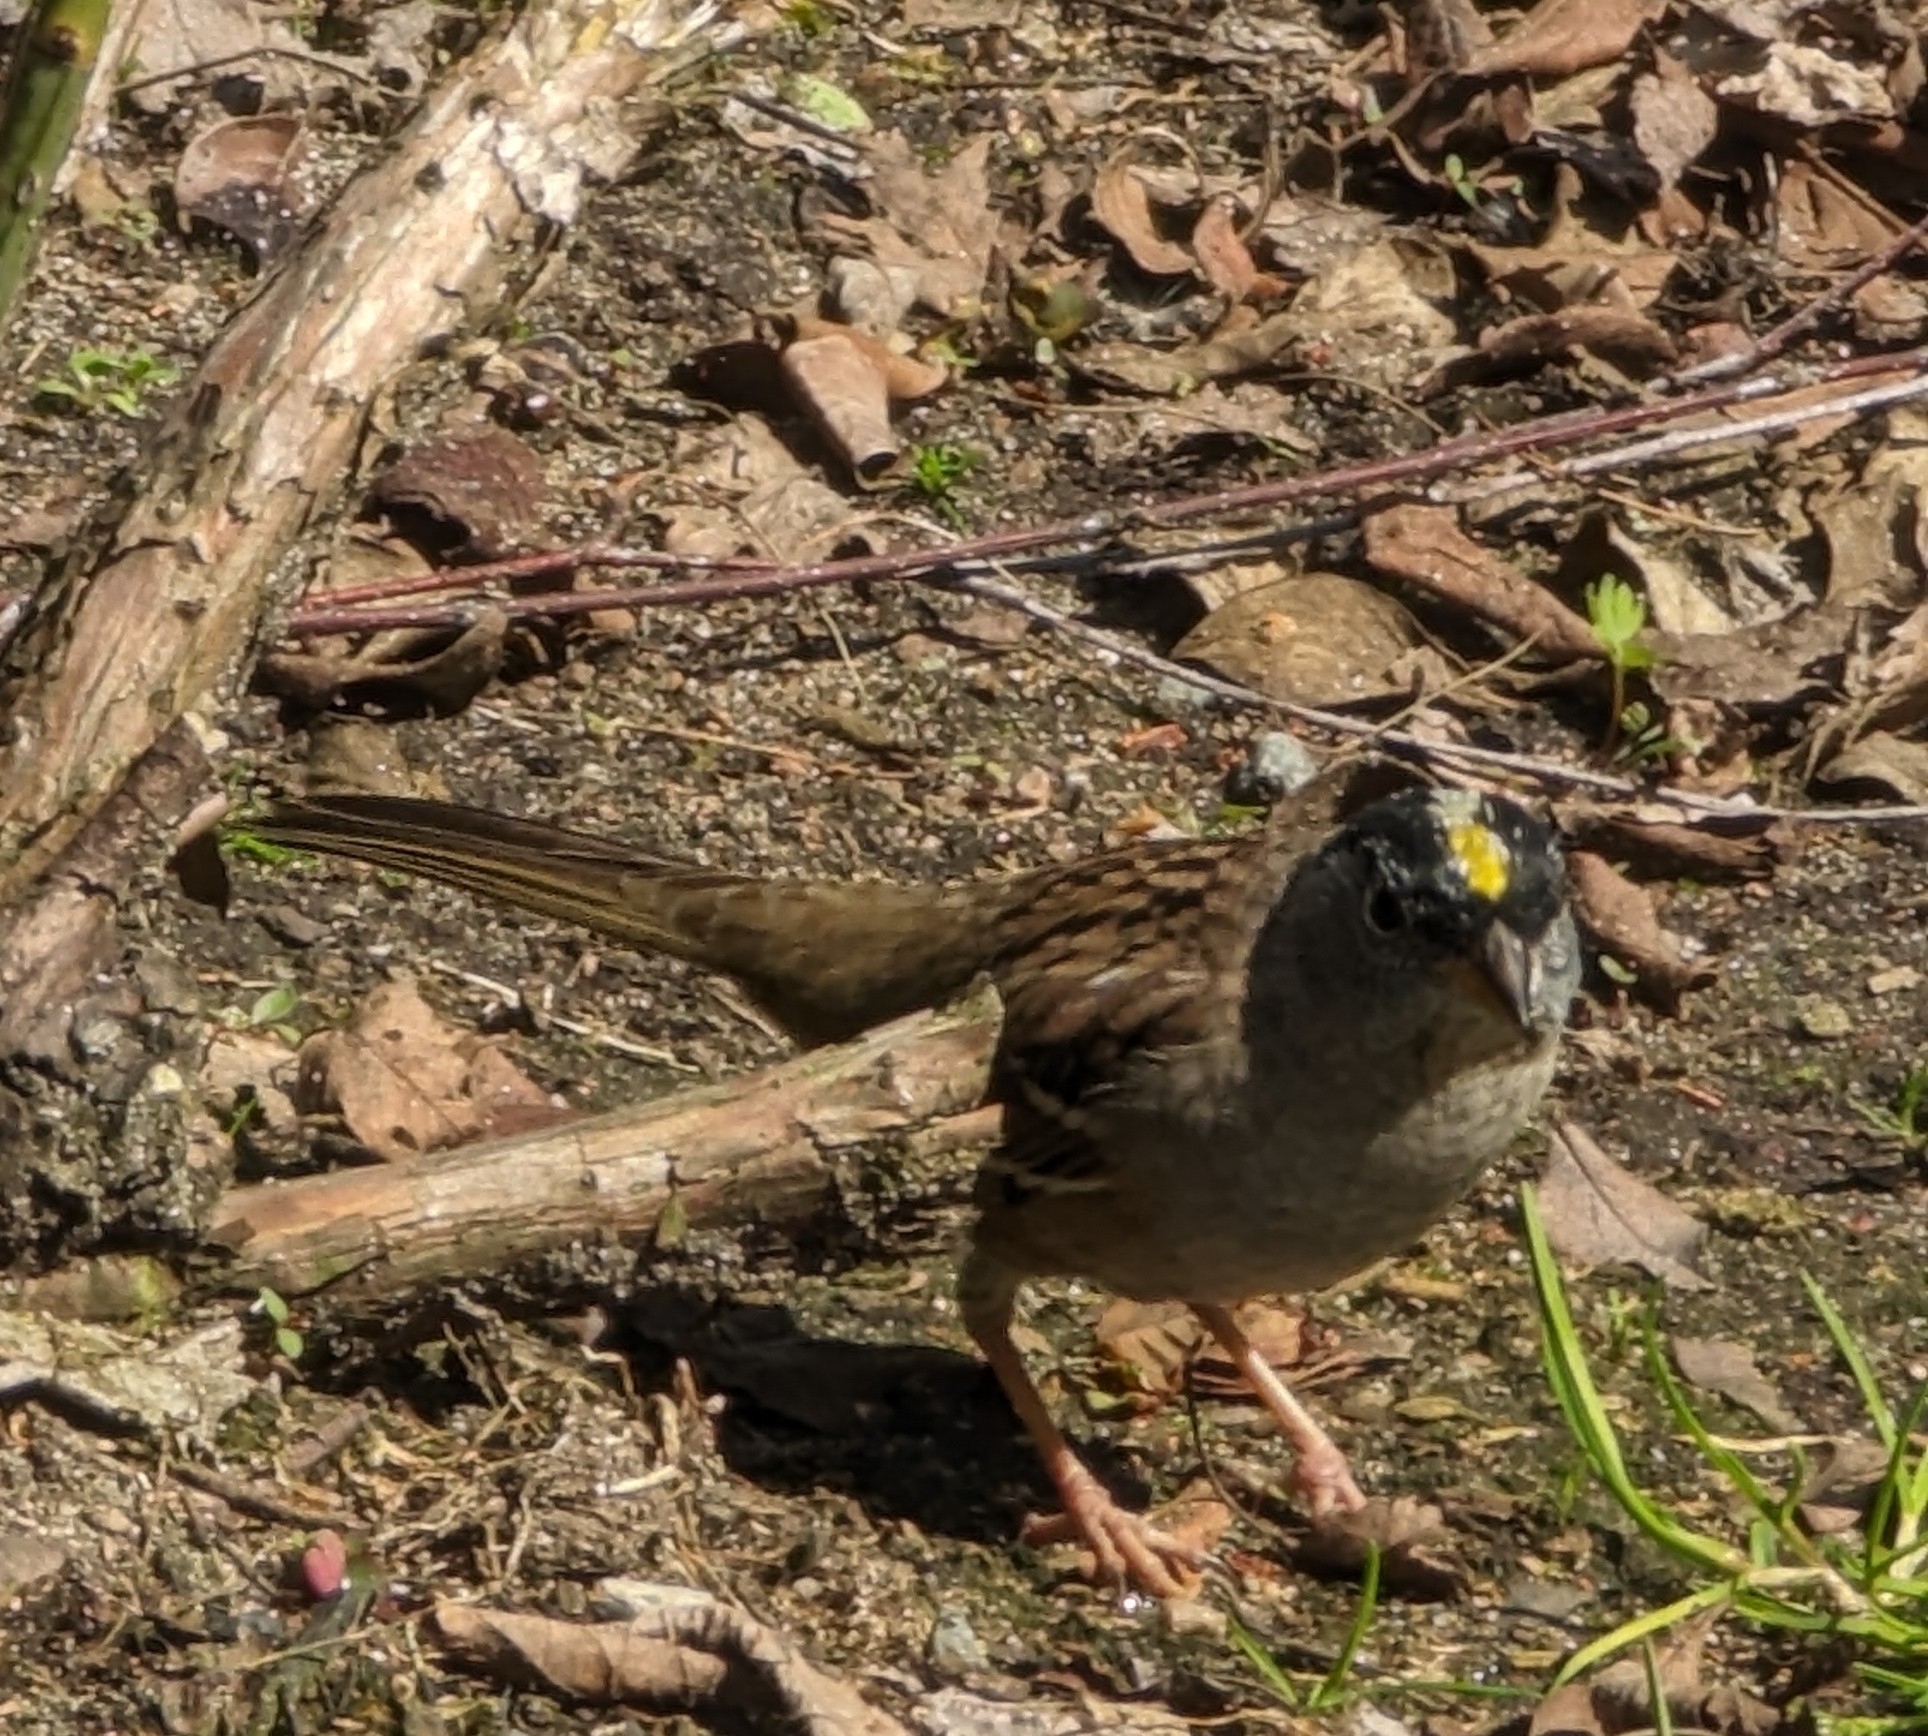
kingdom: Animalia
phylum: Chordata
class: Aves
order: Passeriformes
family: Passerellidae
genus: Zonotrichia
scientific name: Zonotrichia atricapilla
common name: Golden-crowned sparrow
